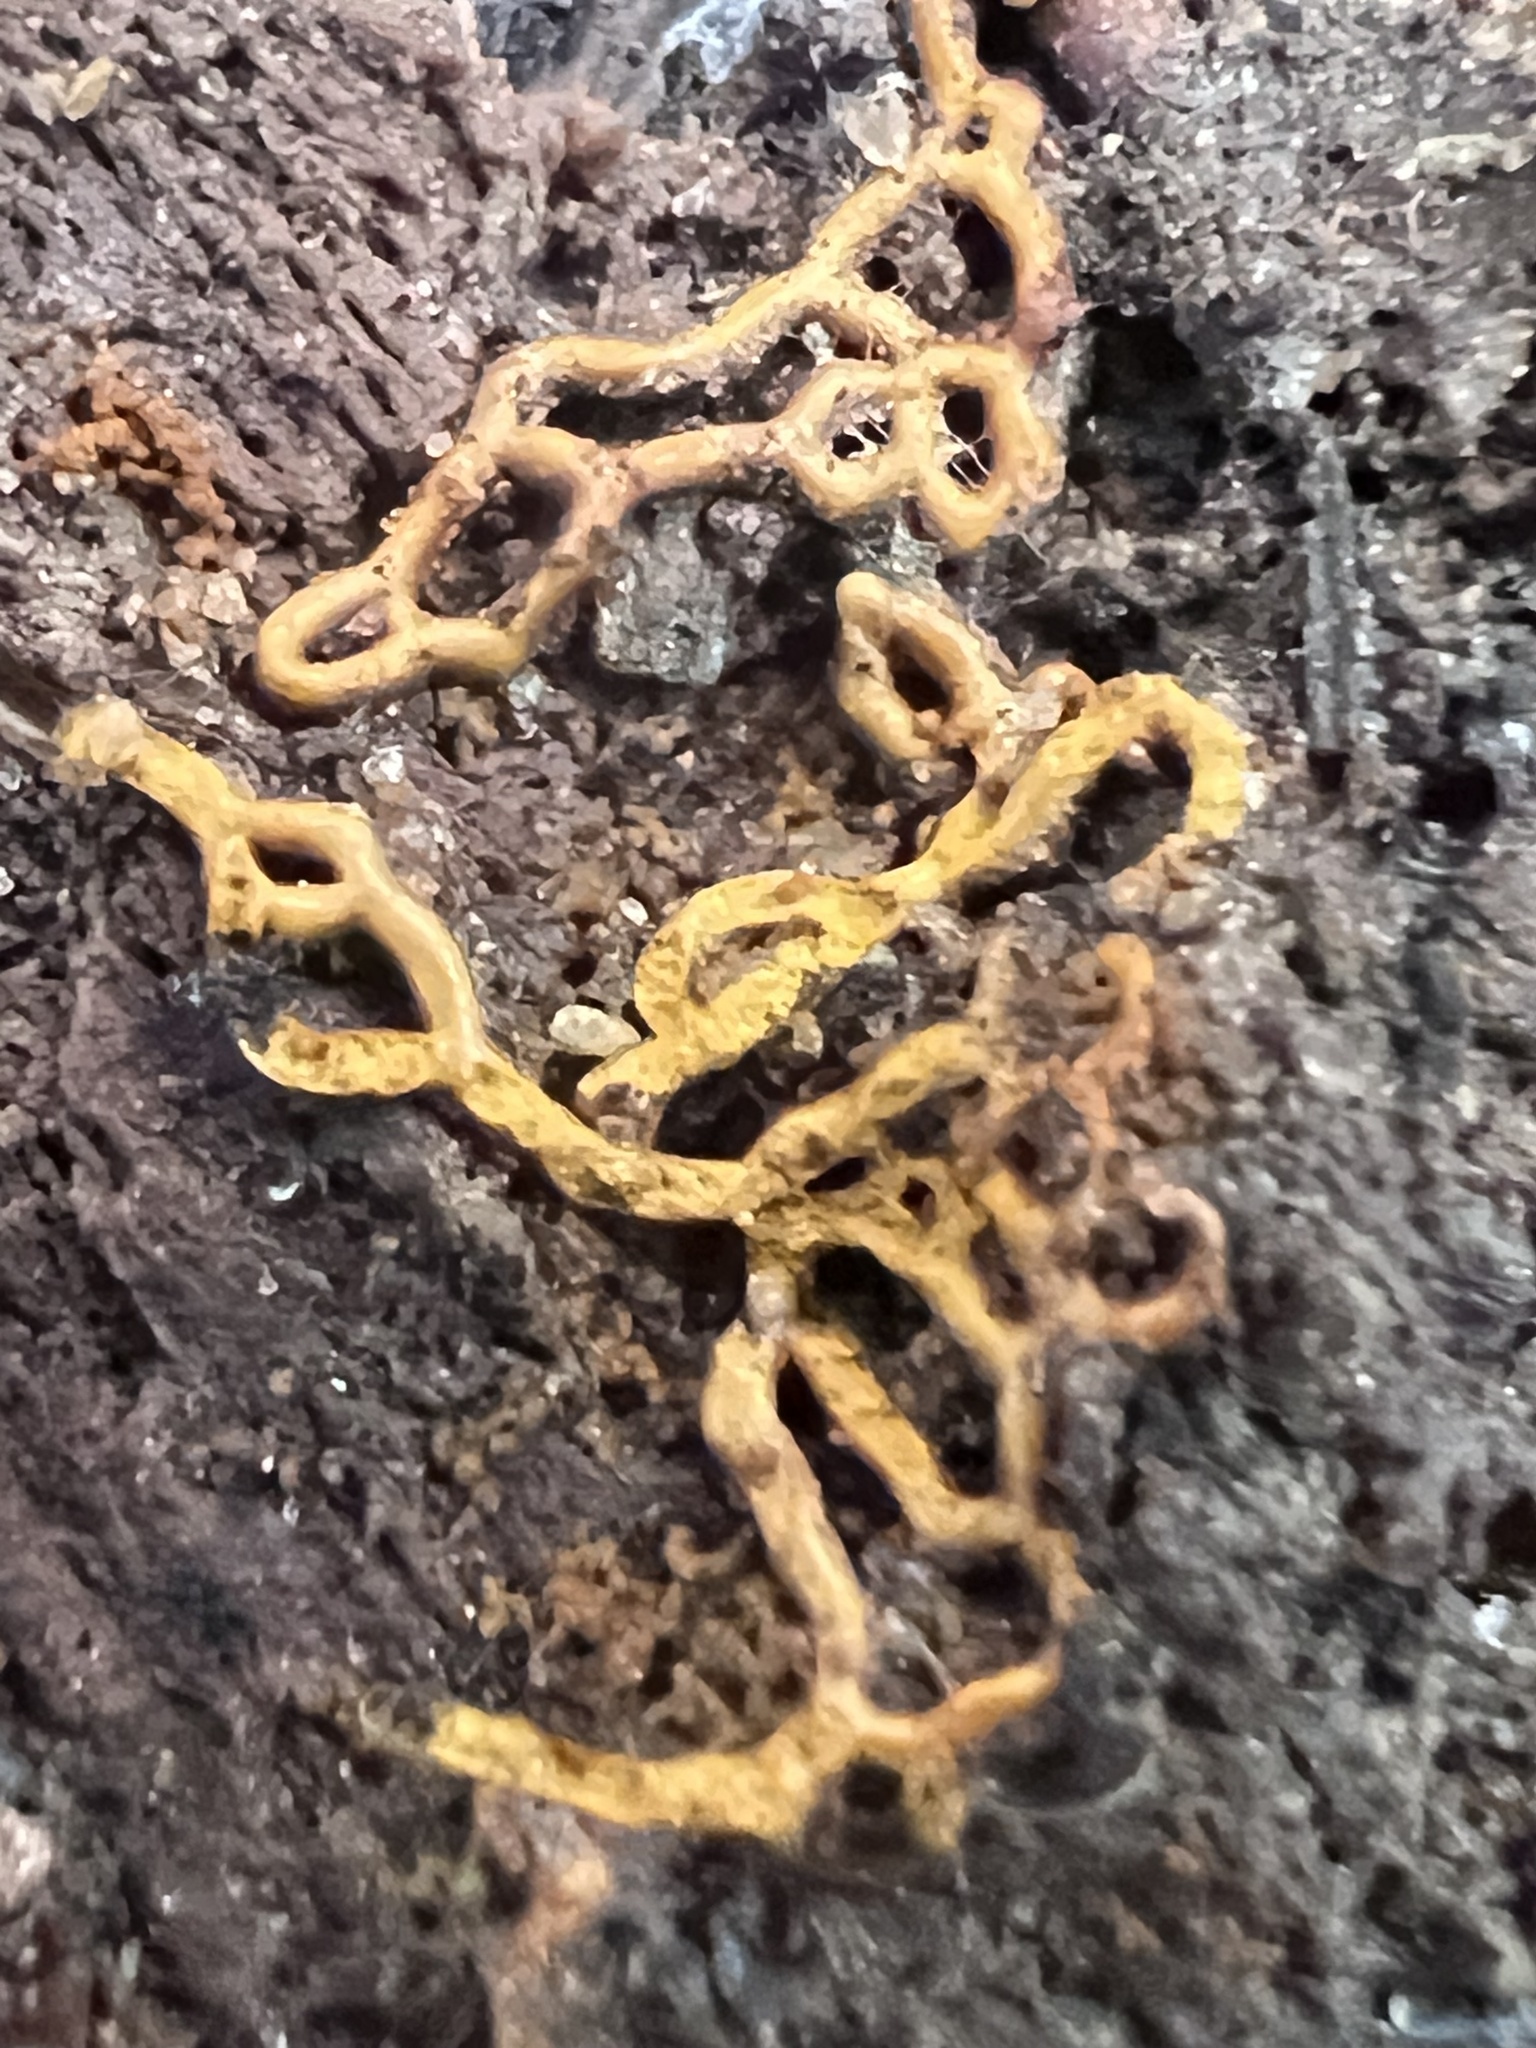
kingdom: Protozoa
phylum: Mycetozoa
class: Myxomycetes
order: Trichiales
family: Arcyriaceae
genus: Hemitrichia
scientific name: Hemitrichia serpula
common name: Pretzel slime mold
